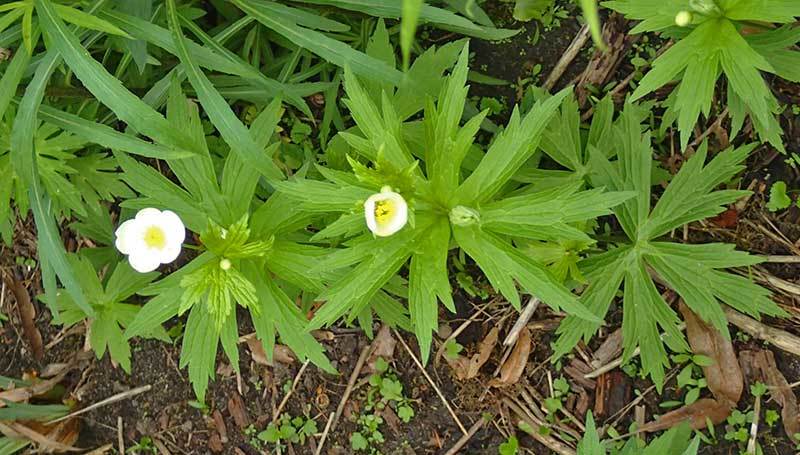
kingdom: Plantae
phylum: Tracheophyta
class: Magnoliopsida
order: Ranunculales
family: Ranunculaceae
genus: Anemonastrum
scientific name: Anemonastrum canadense
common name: Canada anemone
